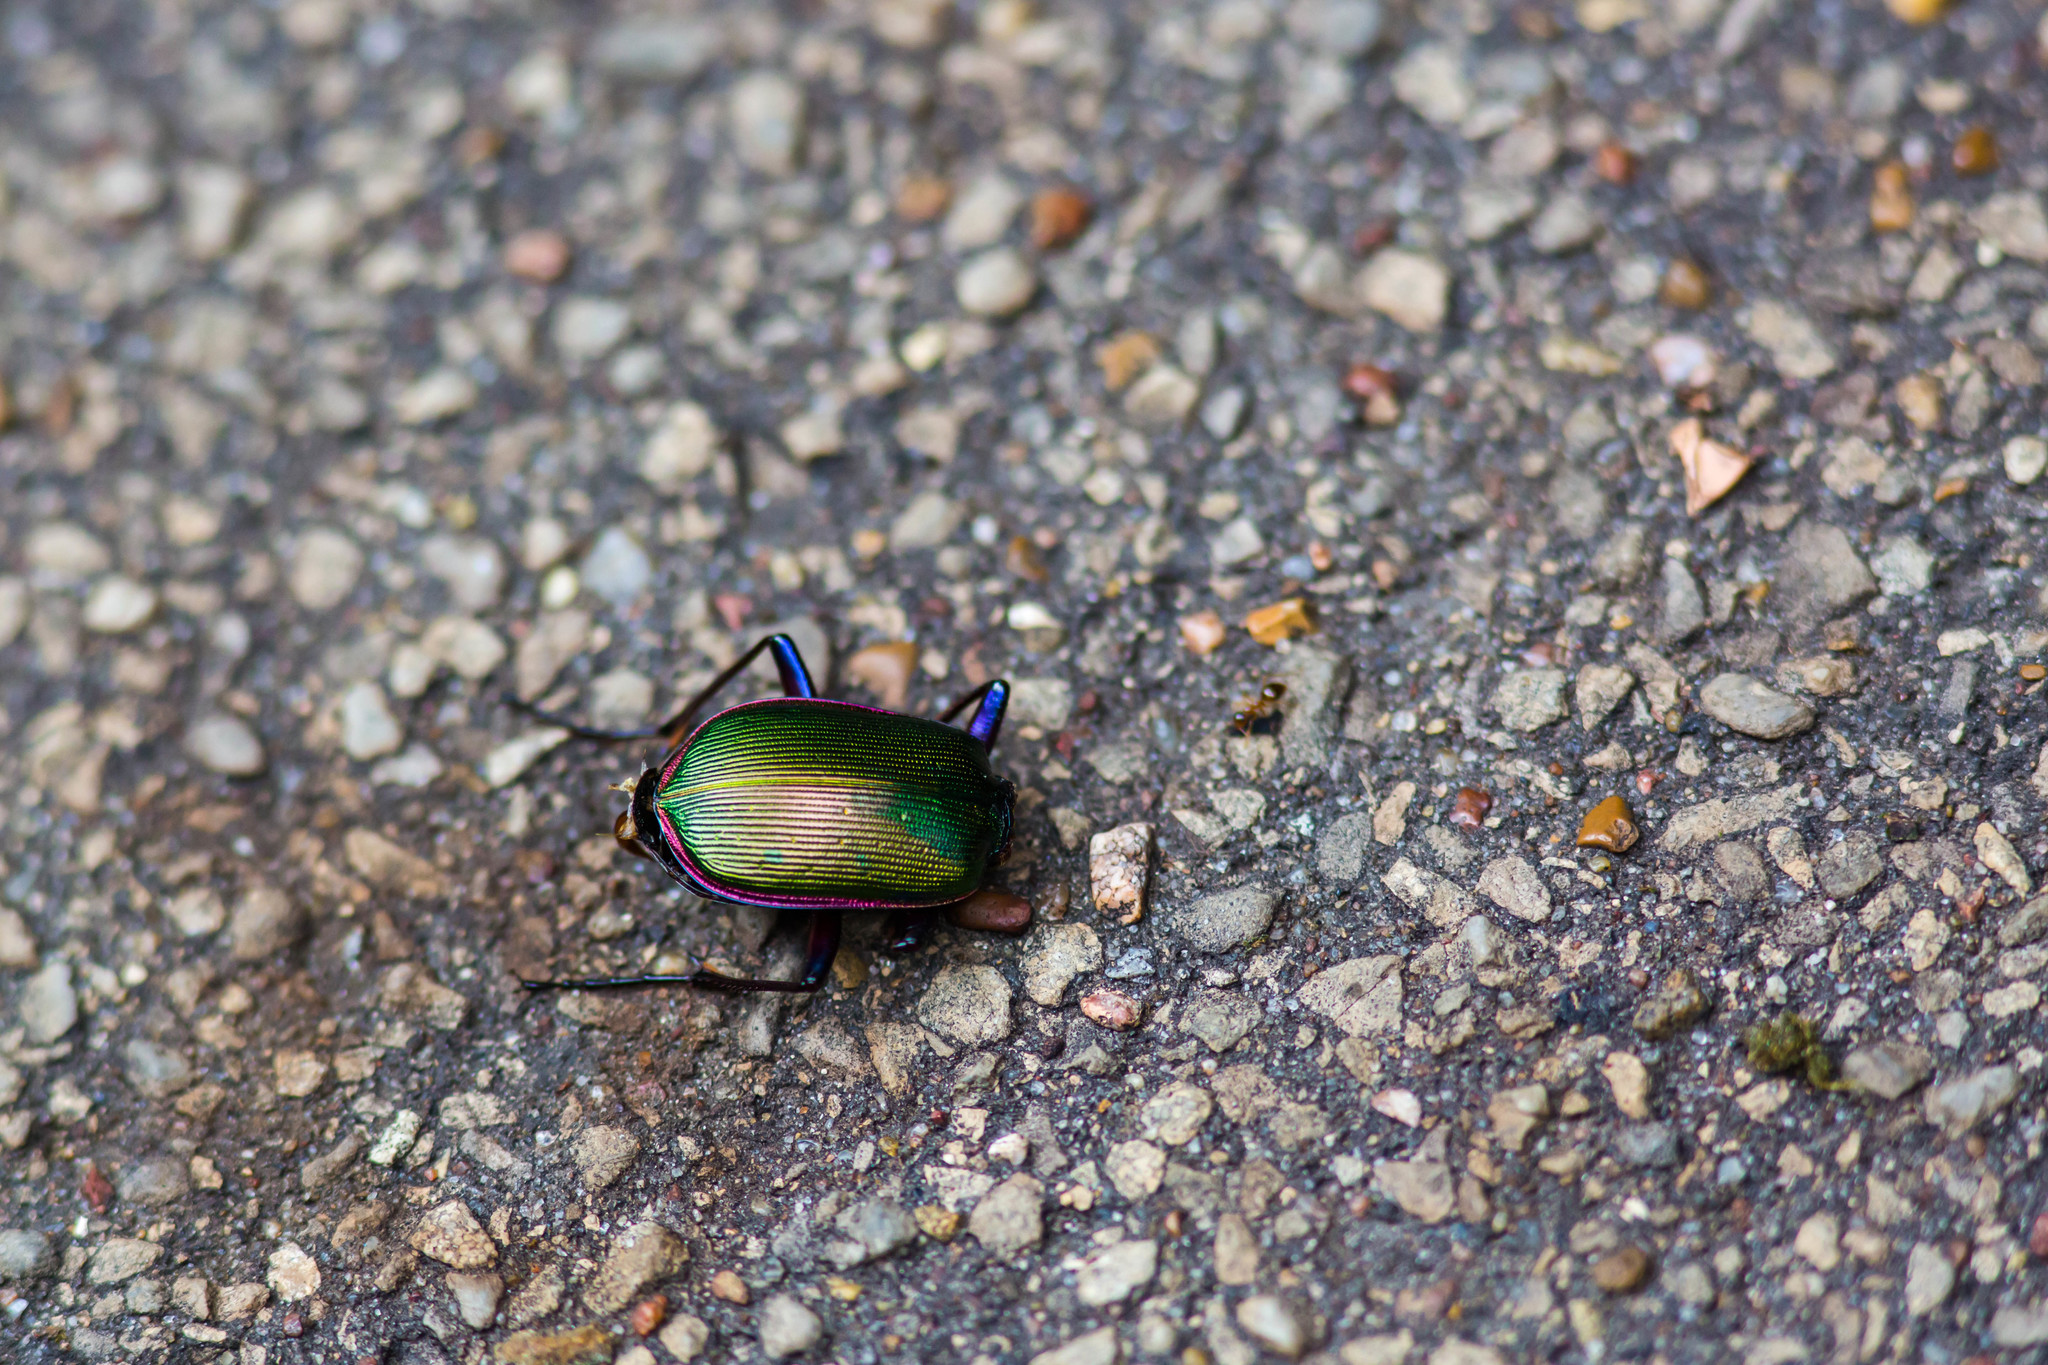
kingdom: Animalia
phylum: Arthropoda
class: Insecta
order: Coleoptera
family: Carabidae
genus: Calosoma
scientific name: Calosoma scrutator
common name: Fiery searcher beetle
